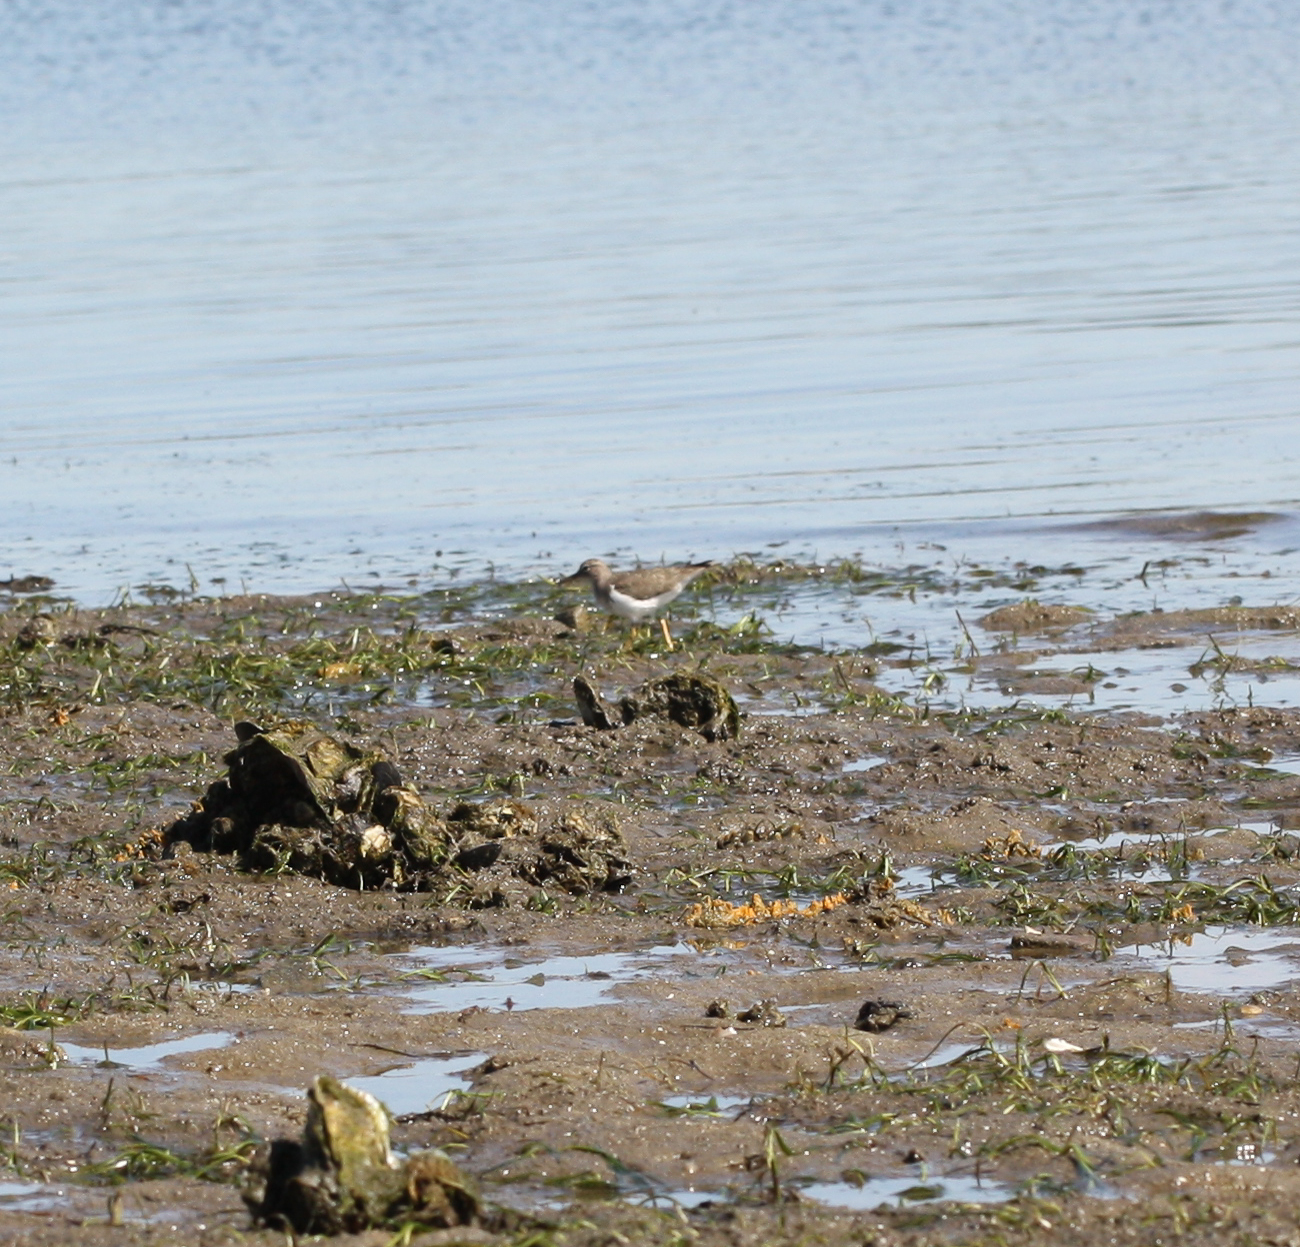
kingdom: Animalia
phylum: Chordata
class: Aves
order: Charadriiformes
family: Scolopacidae
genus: Actitis
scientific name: Actitis macularius
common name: Spotted sandpiper
